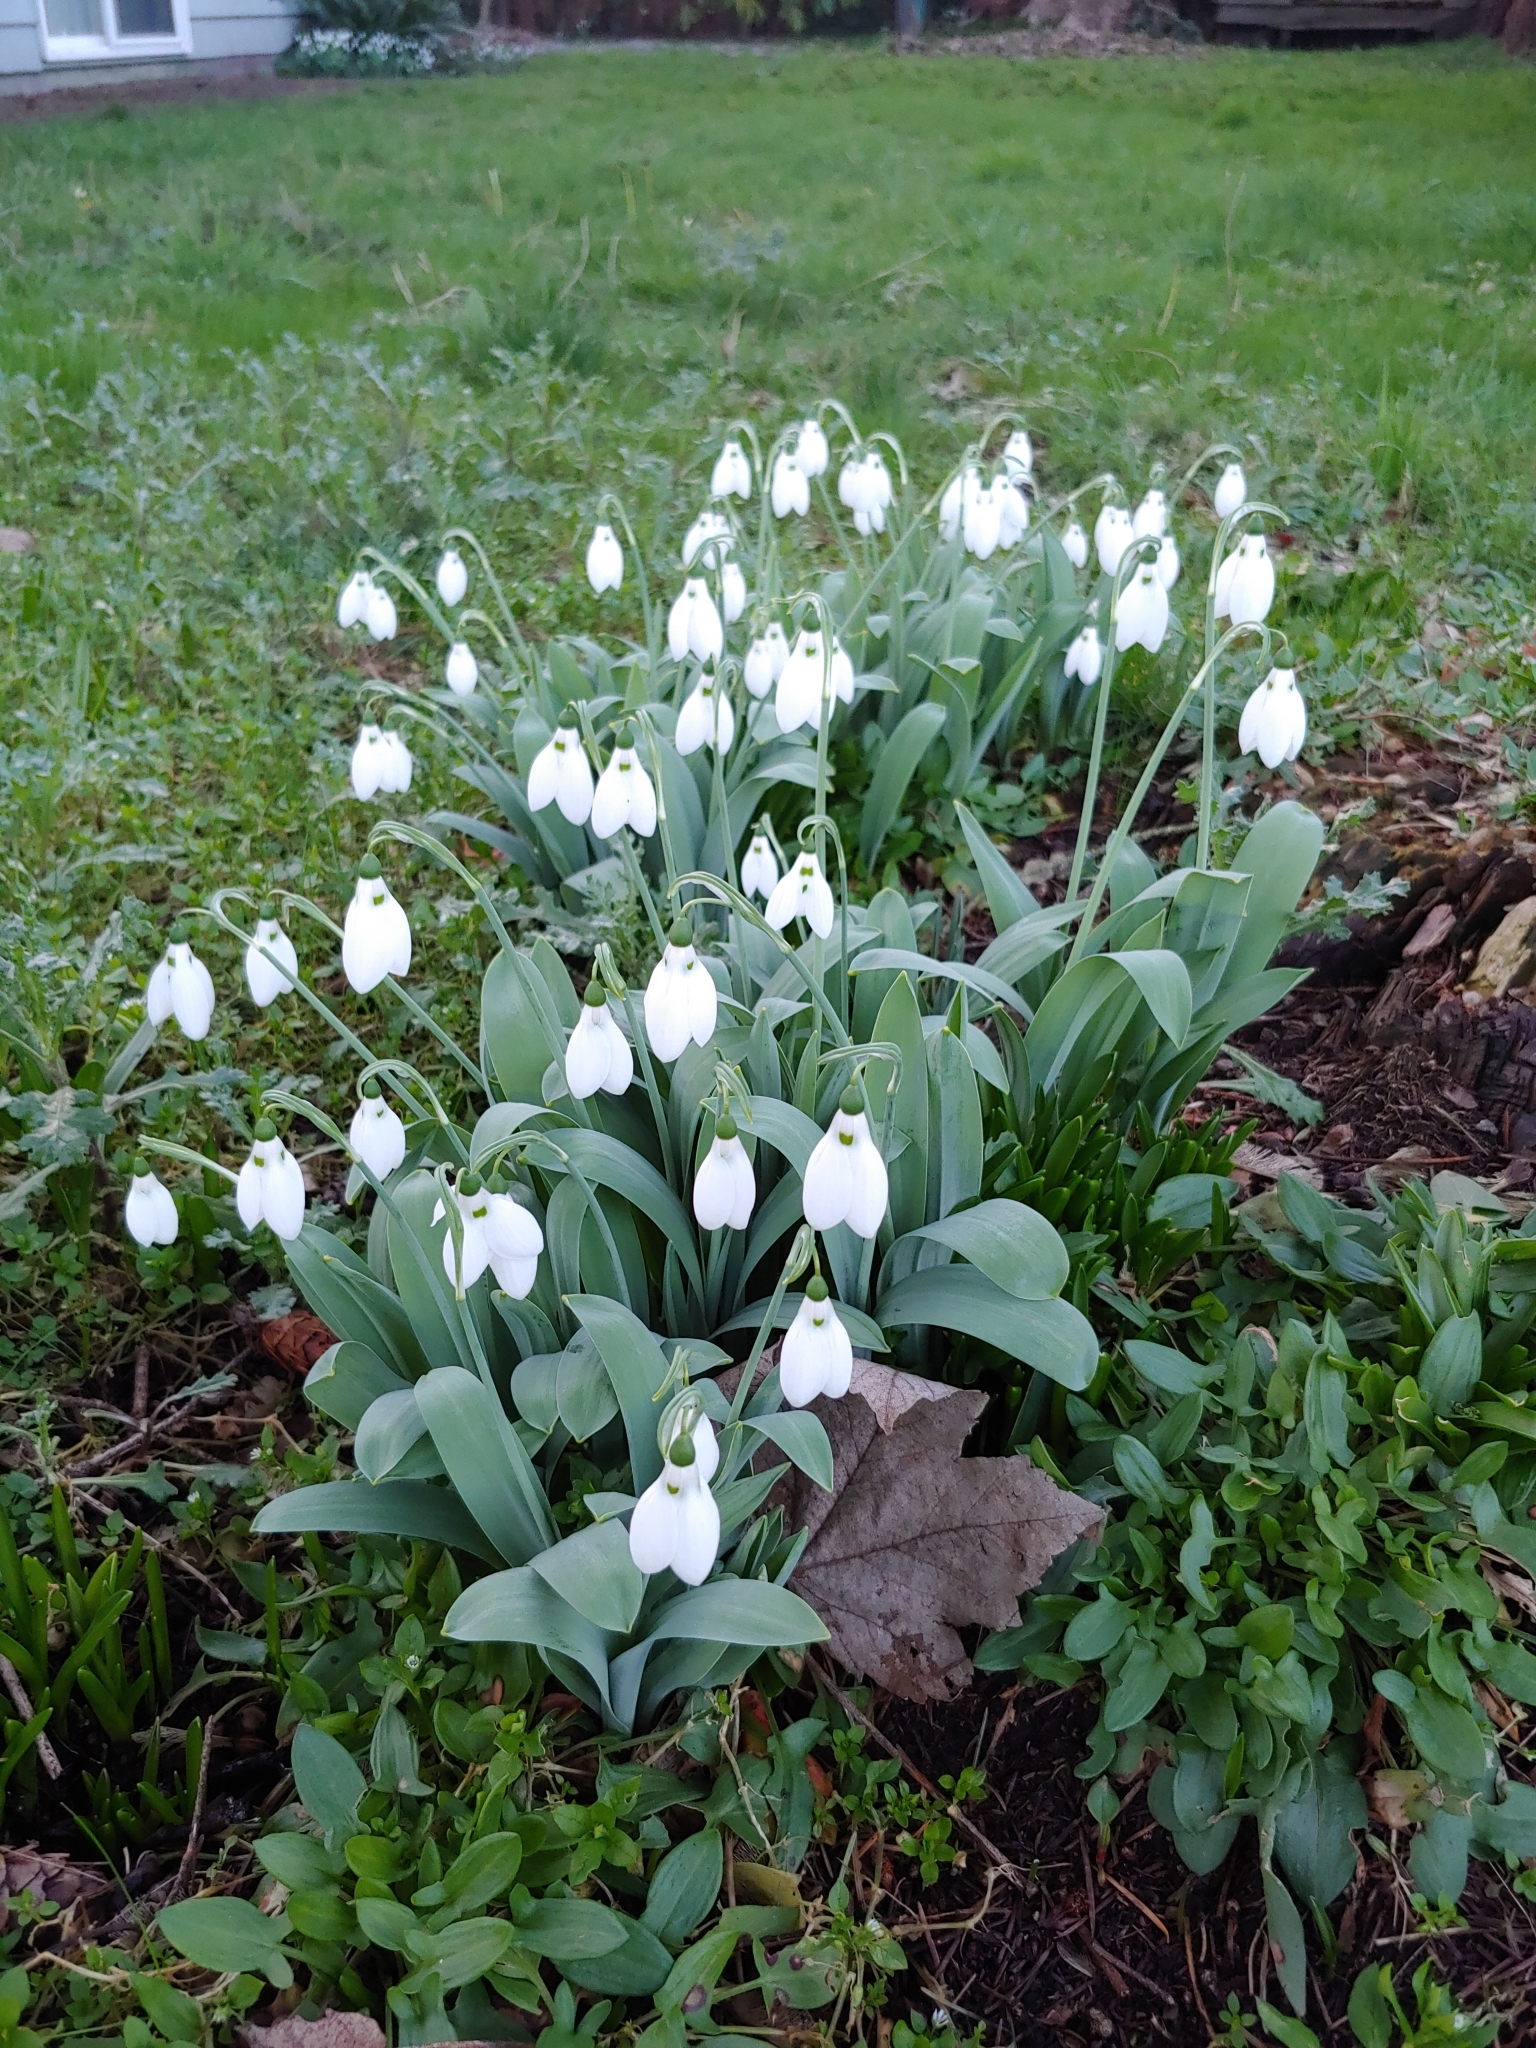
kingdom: Plantae
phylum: Tracheophyta
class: Liliopsida
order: Asparagales
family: Amaryllidaceae
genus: Galanthus
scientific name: Galanthus elwesii
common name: Greater snowdrop
